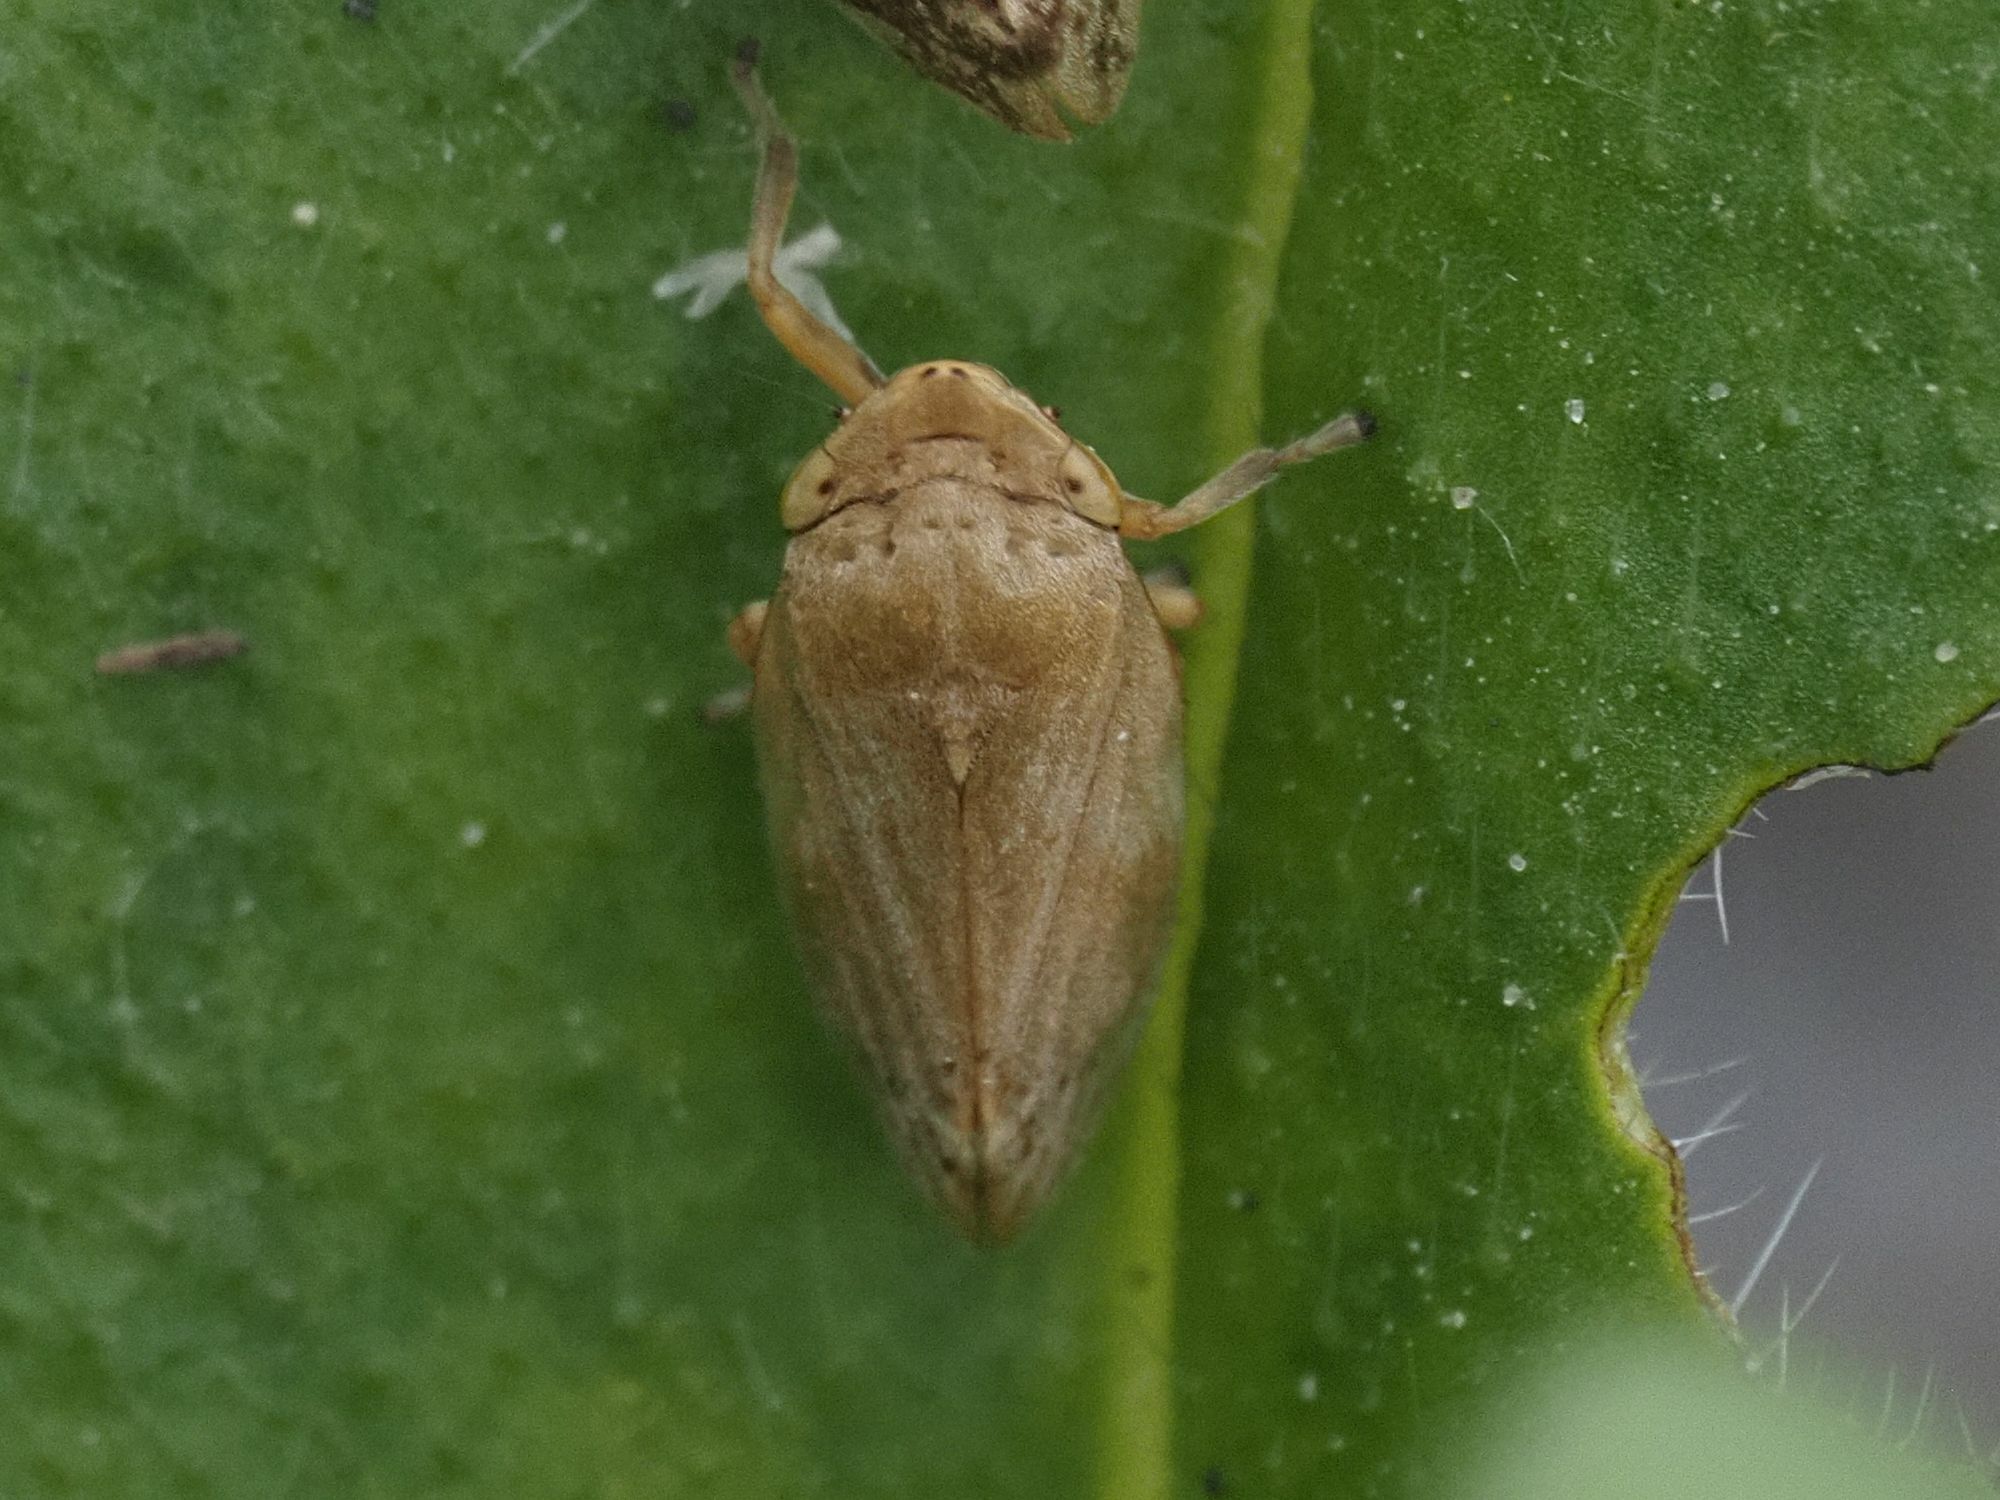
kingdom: Animalia
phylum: Arthropoda
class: Insecta
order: Hemiptera
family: Aphrophoridae
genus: Philaenus
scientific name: Philaenus spumarius
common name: Meadow spittlebug
